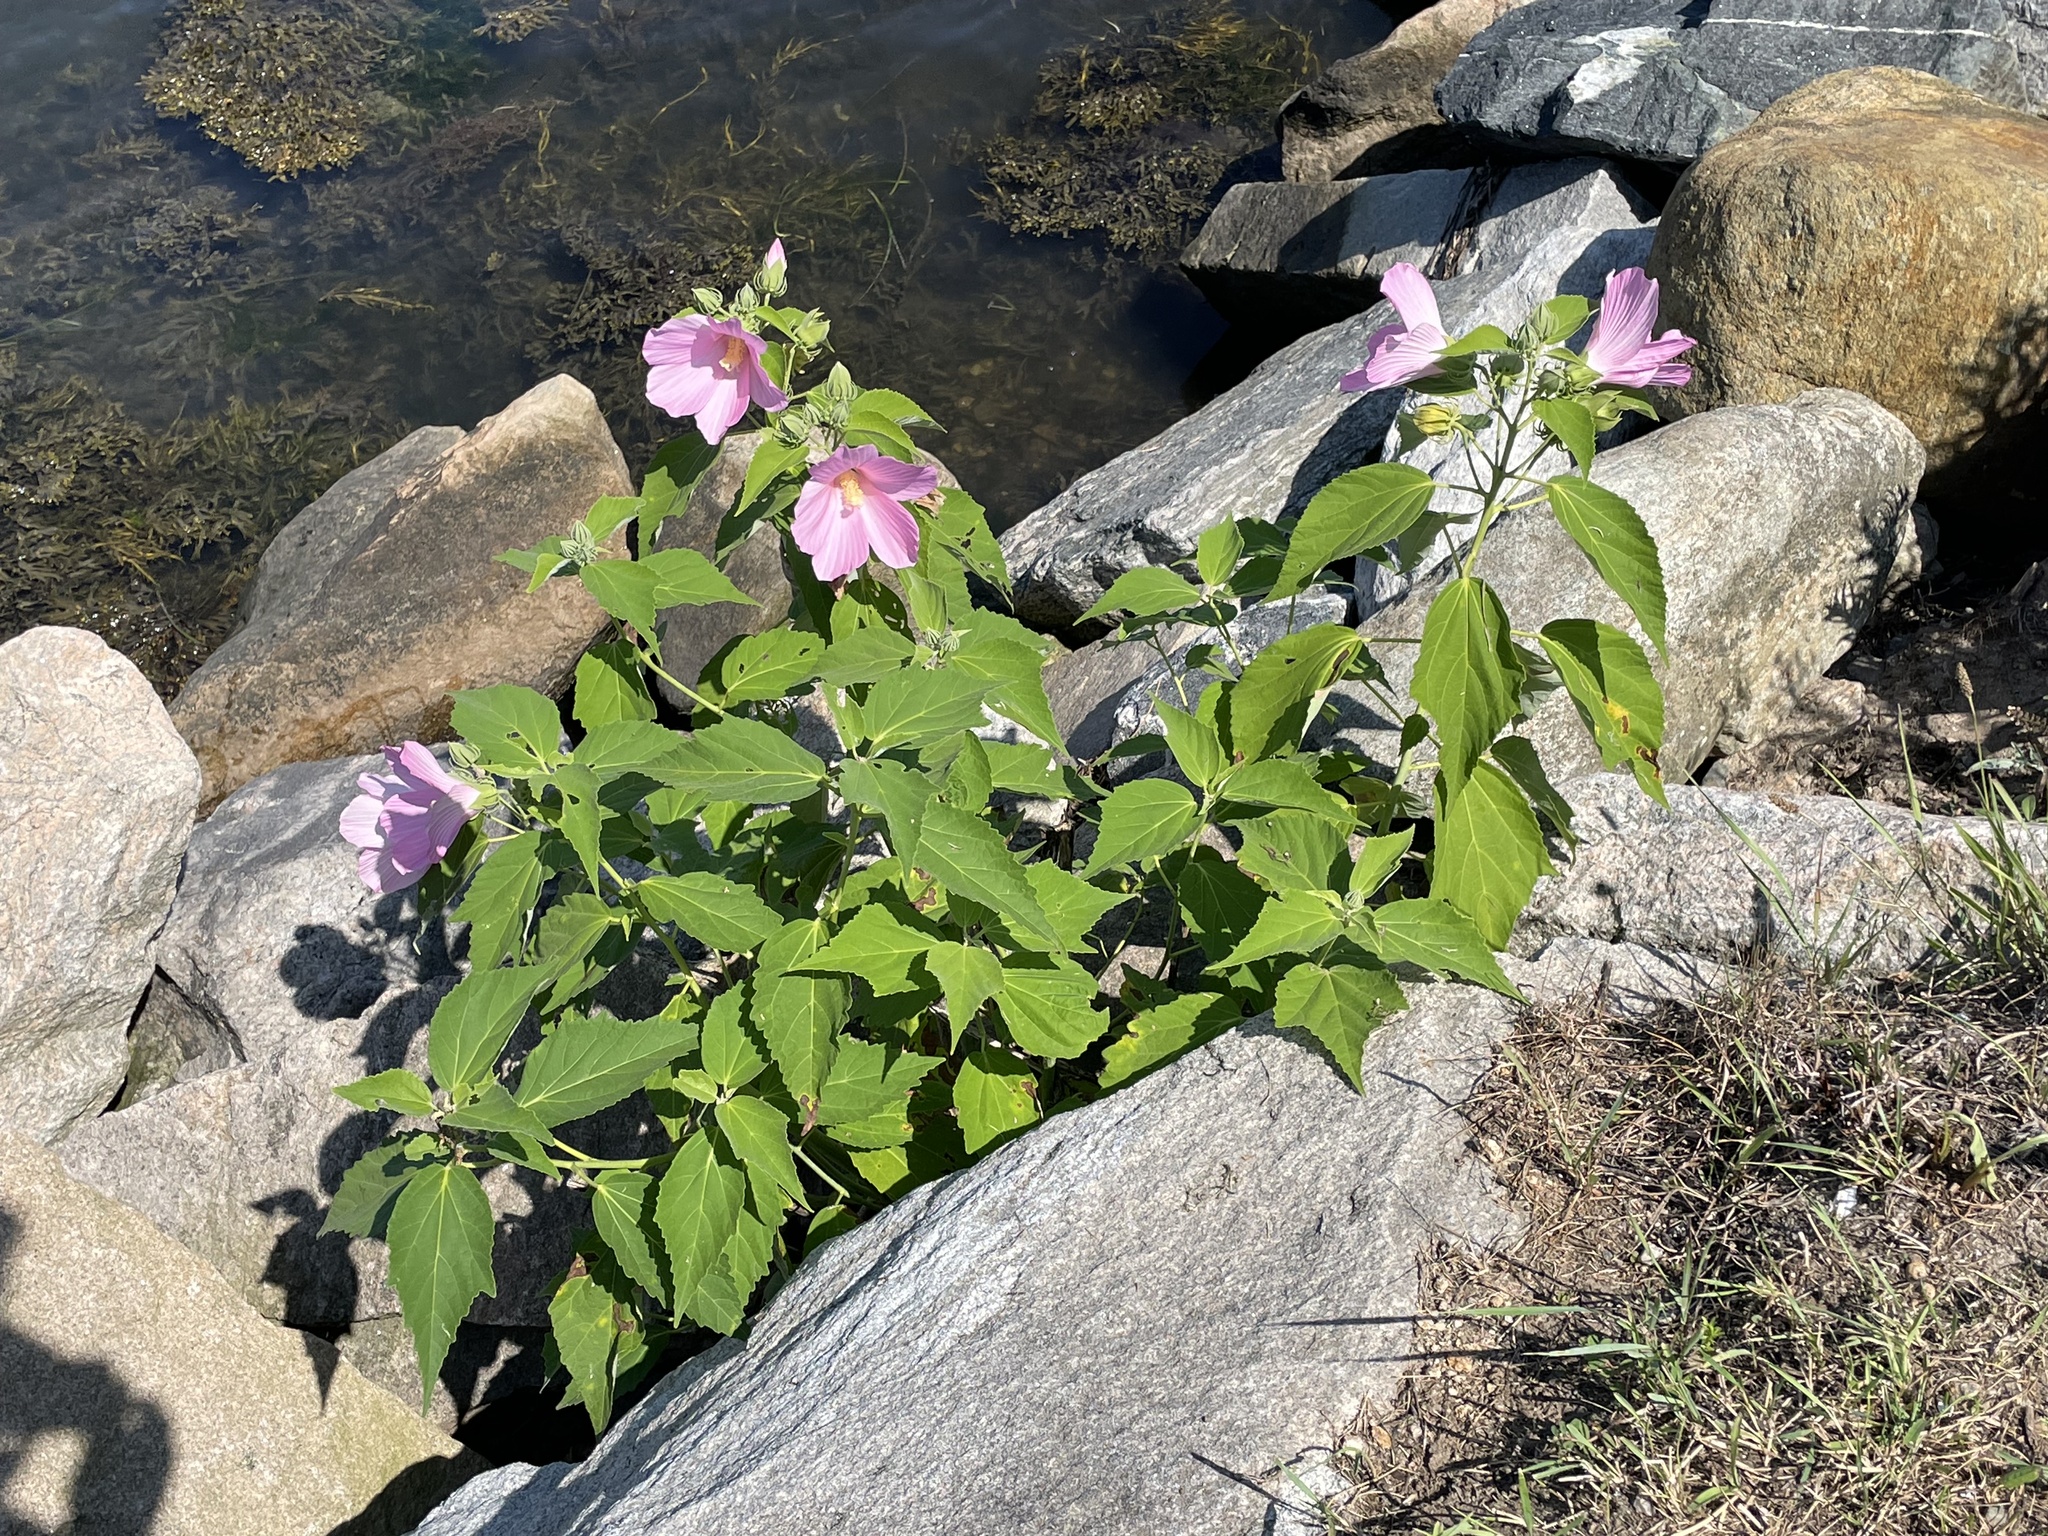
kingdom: Plantae
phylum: Tracheophyta
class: Magnoliopsida
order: Malvales
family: Malvaceae
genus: Hibiscus
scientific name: Hibiscus moscheutos
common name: Common rose-mallow
